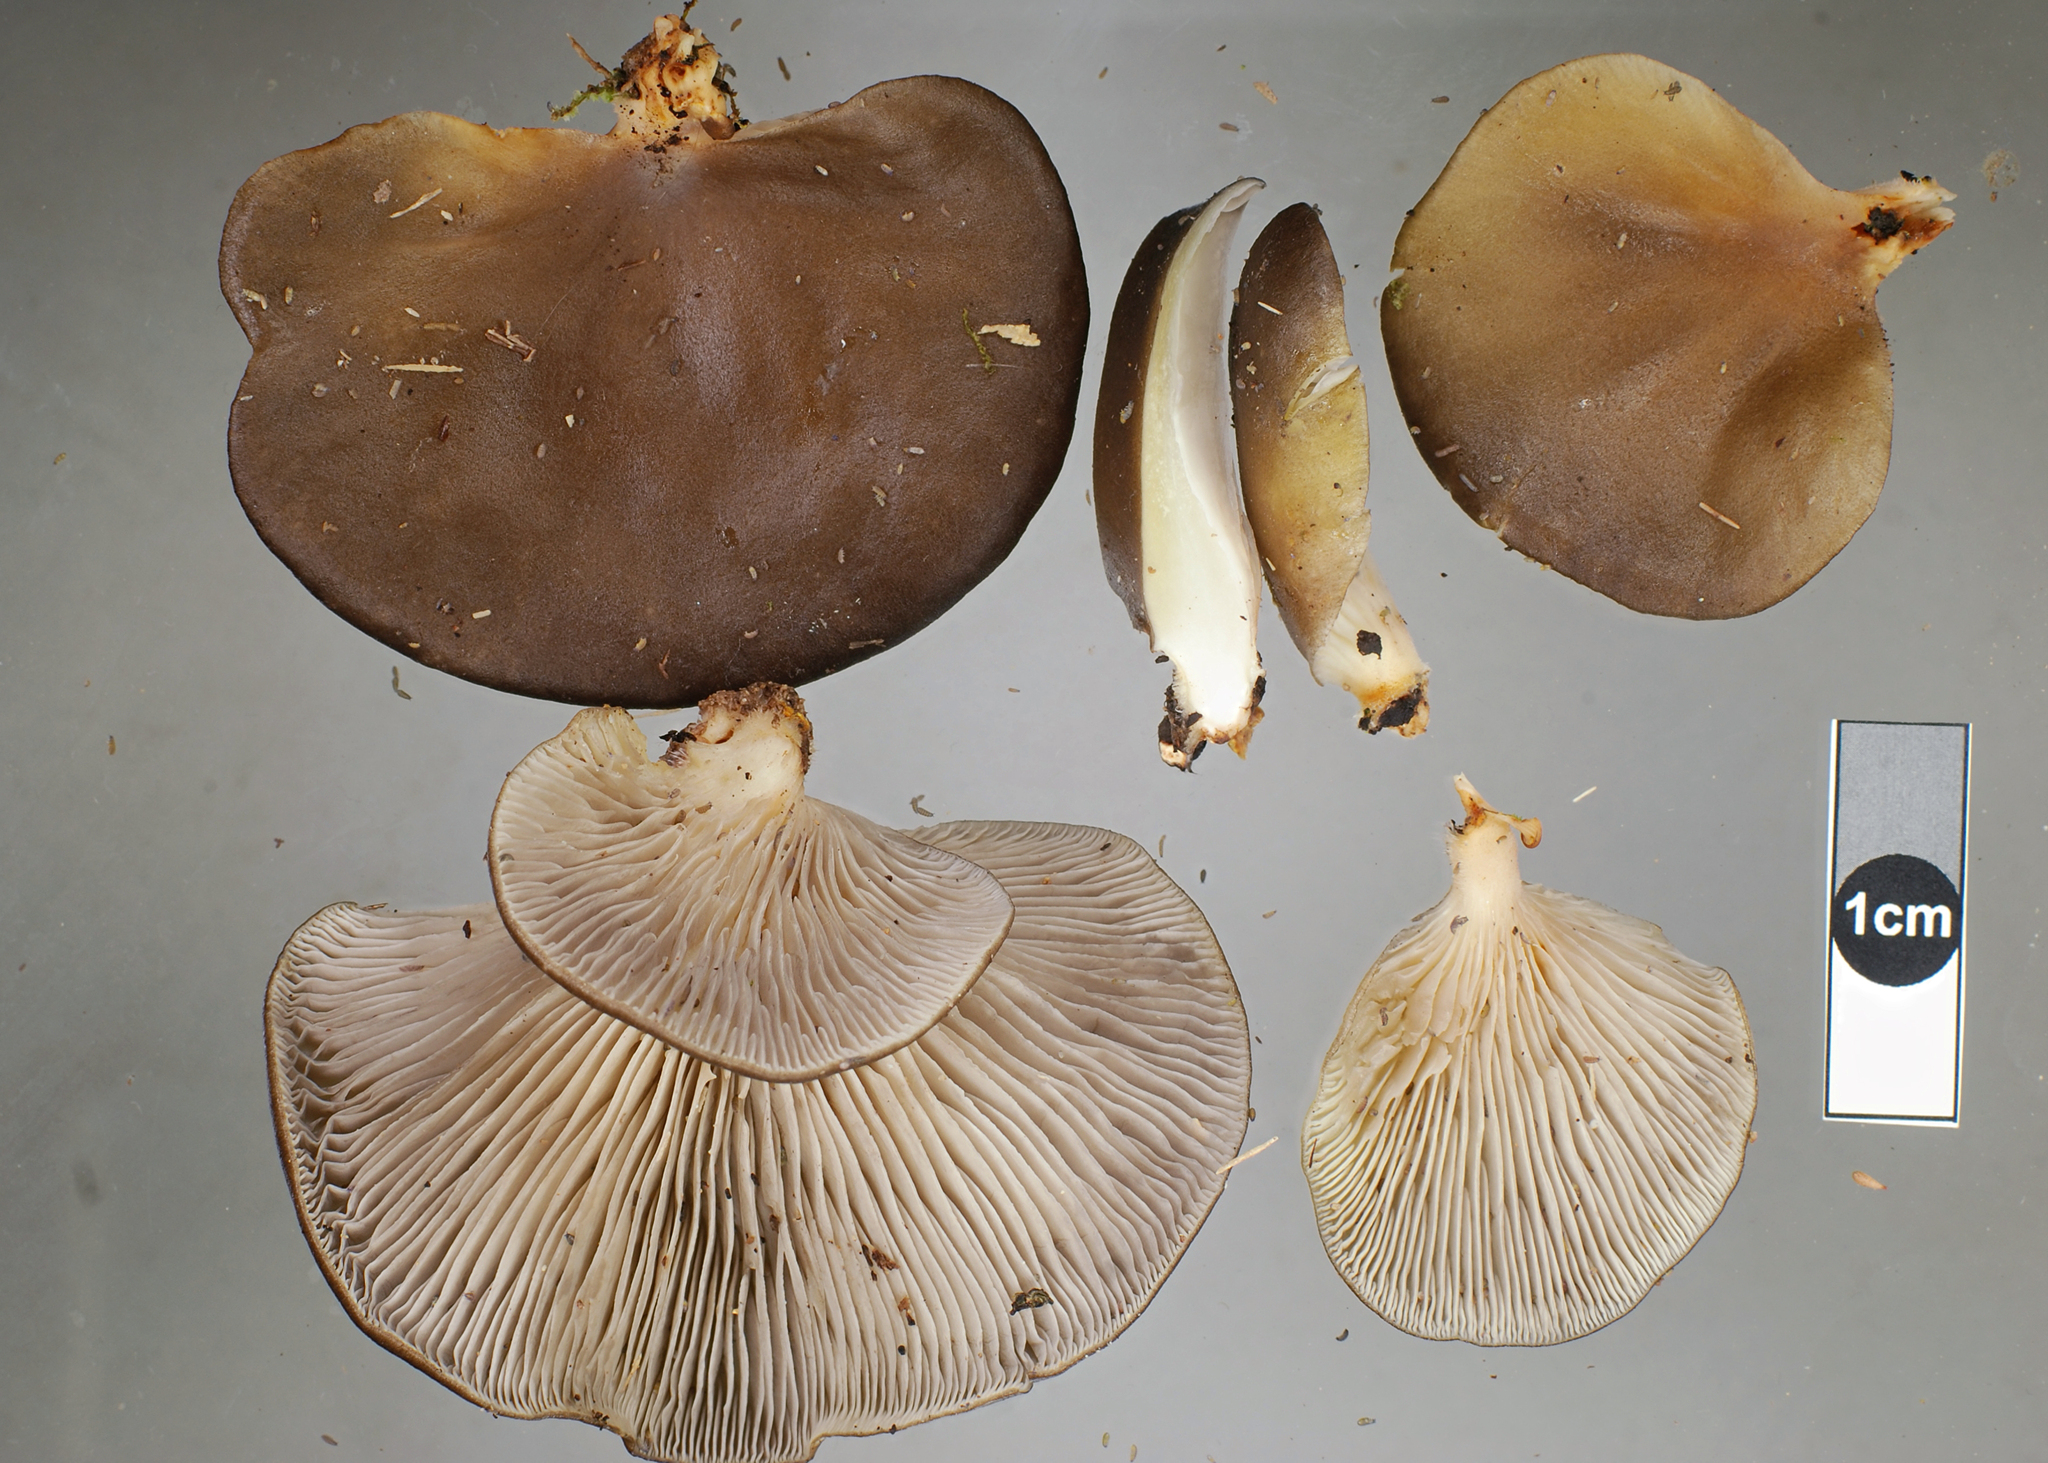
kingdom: Fungi
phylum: Basidiomycota
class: Agaricomycetes
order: Agaricales
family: Pleurotaceae
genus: Pleurotus
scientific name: Pleurotus purpureo-olivaceus
